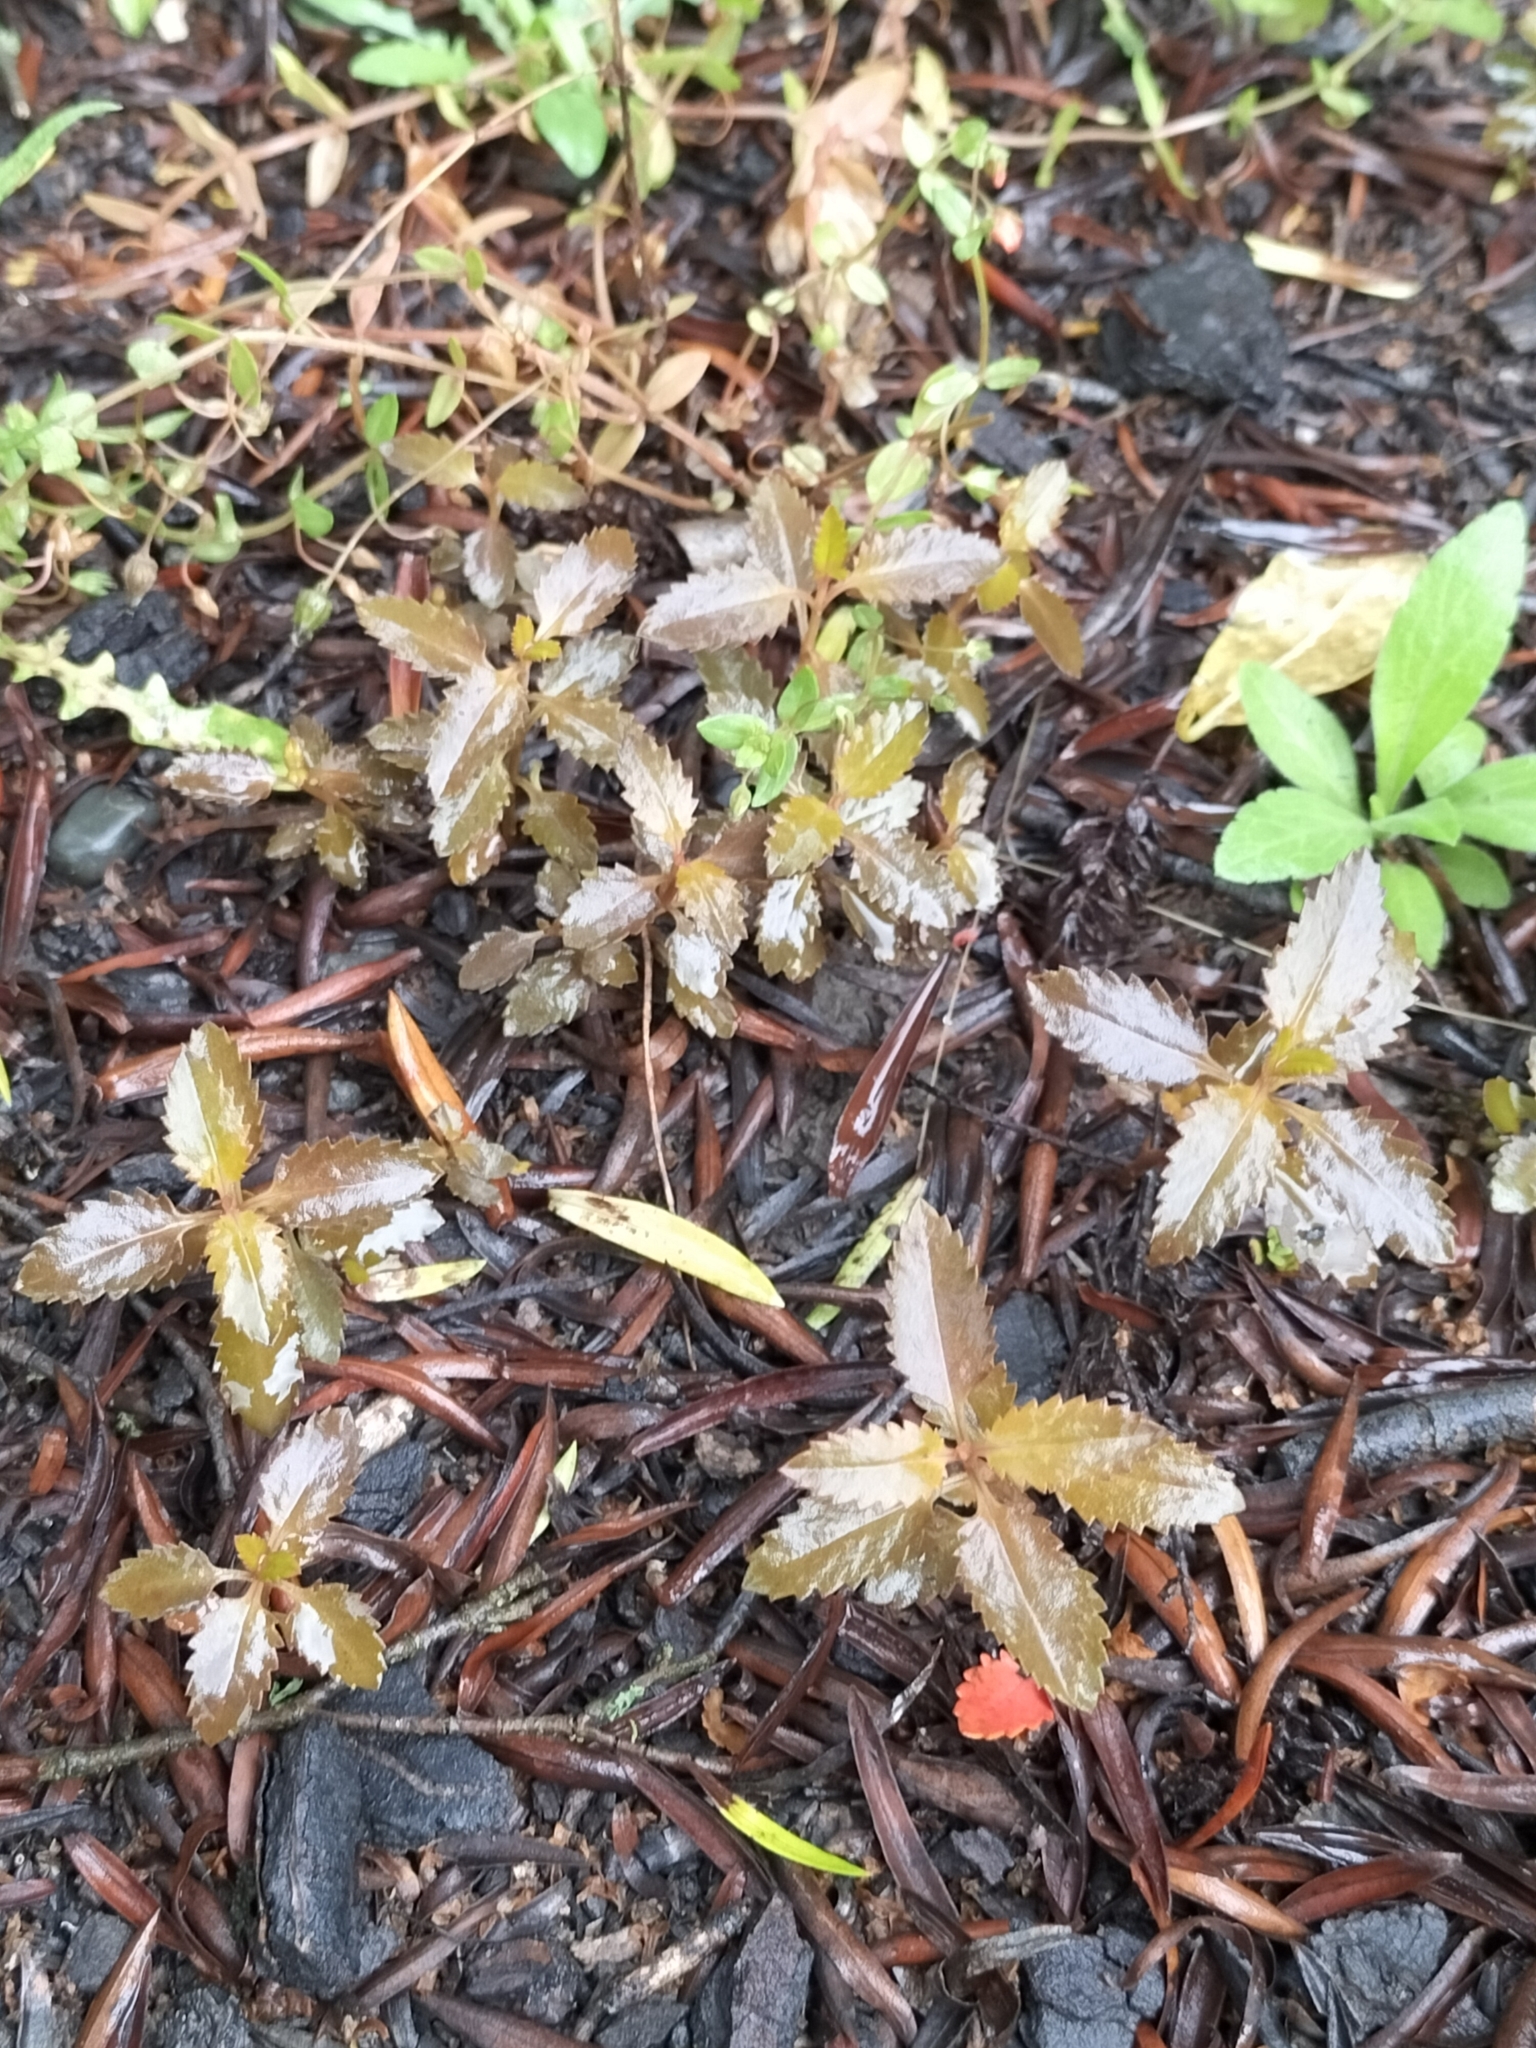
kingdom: Plantae
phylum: Tracheophyta
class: Magnoliopsida
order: Saxifragales
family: Haloragaceae
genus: Haloragis
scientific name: Haloragis erecta
